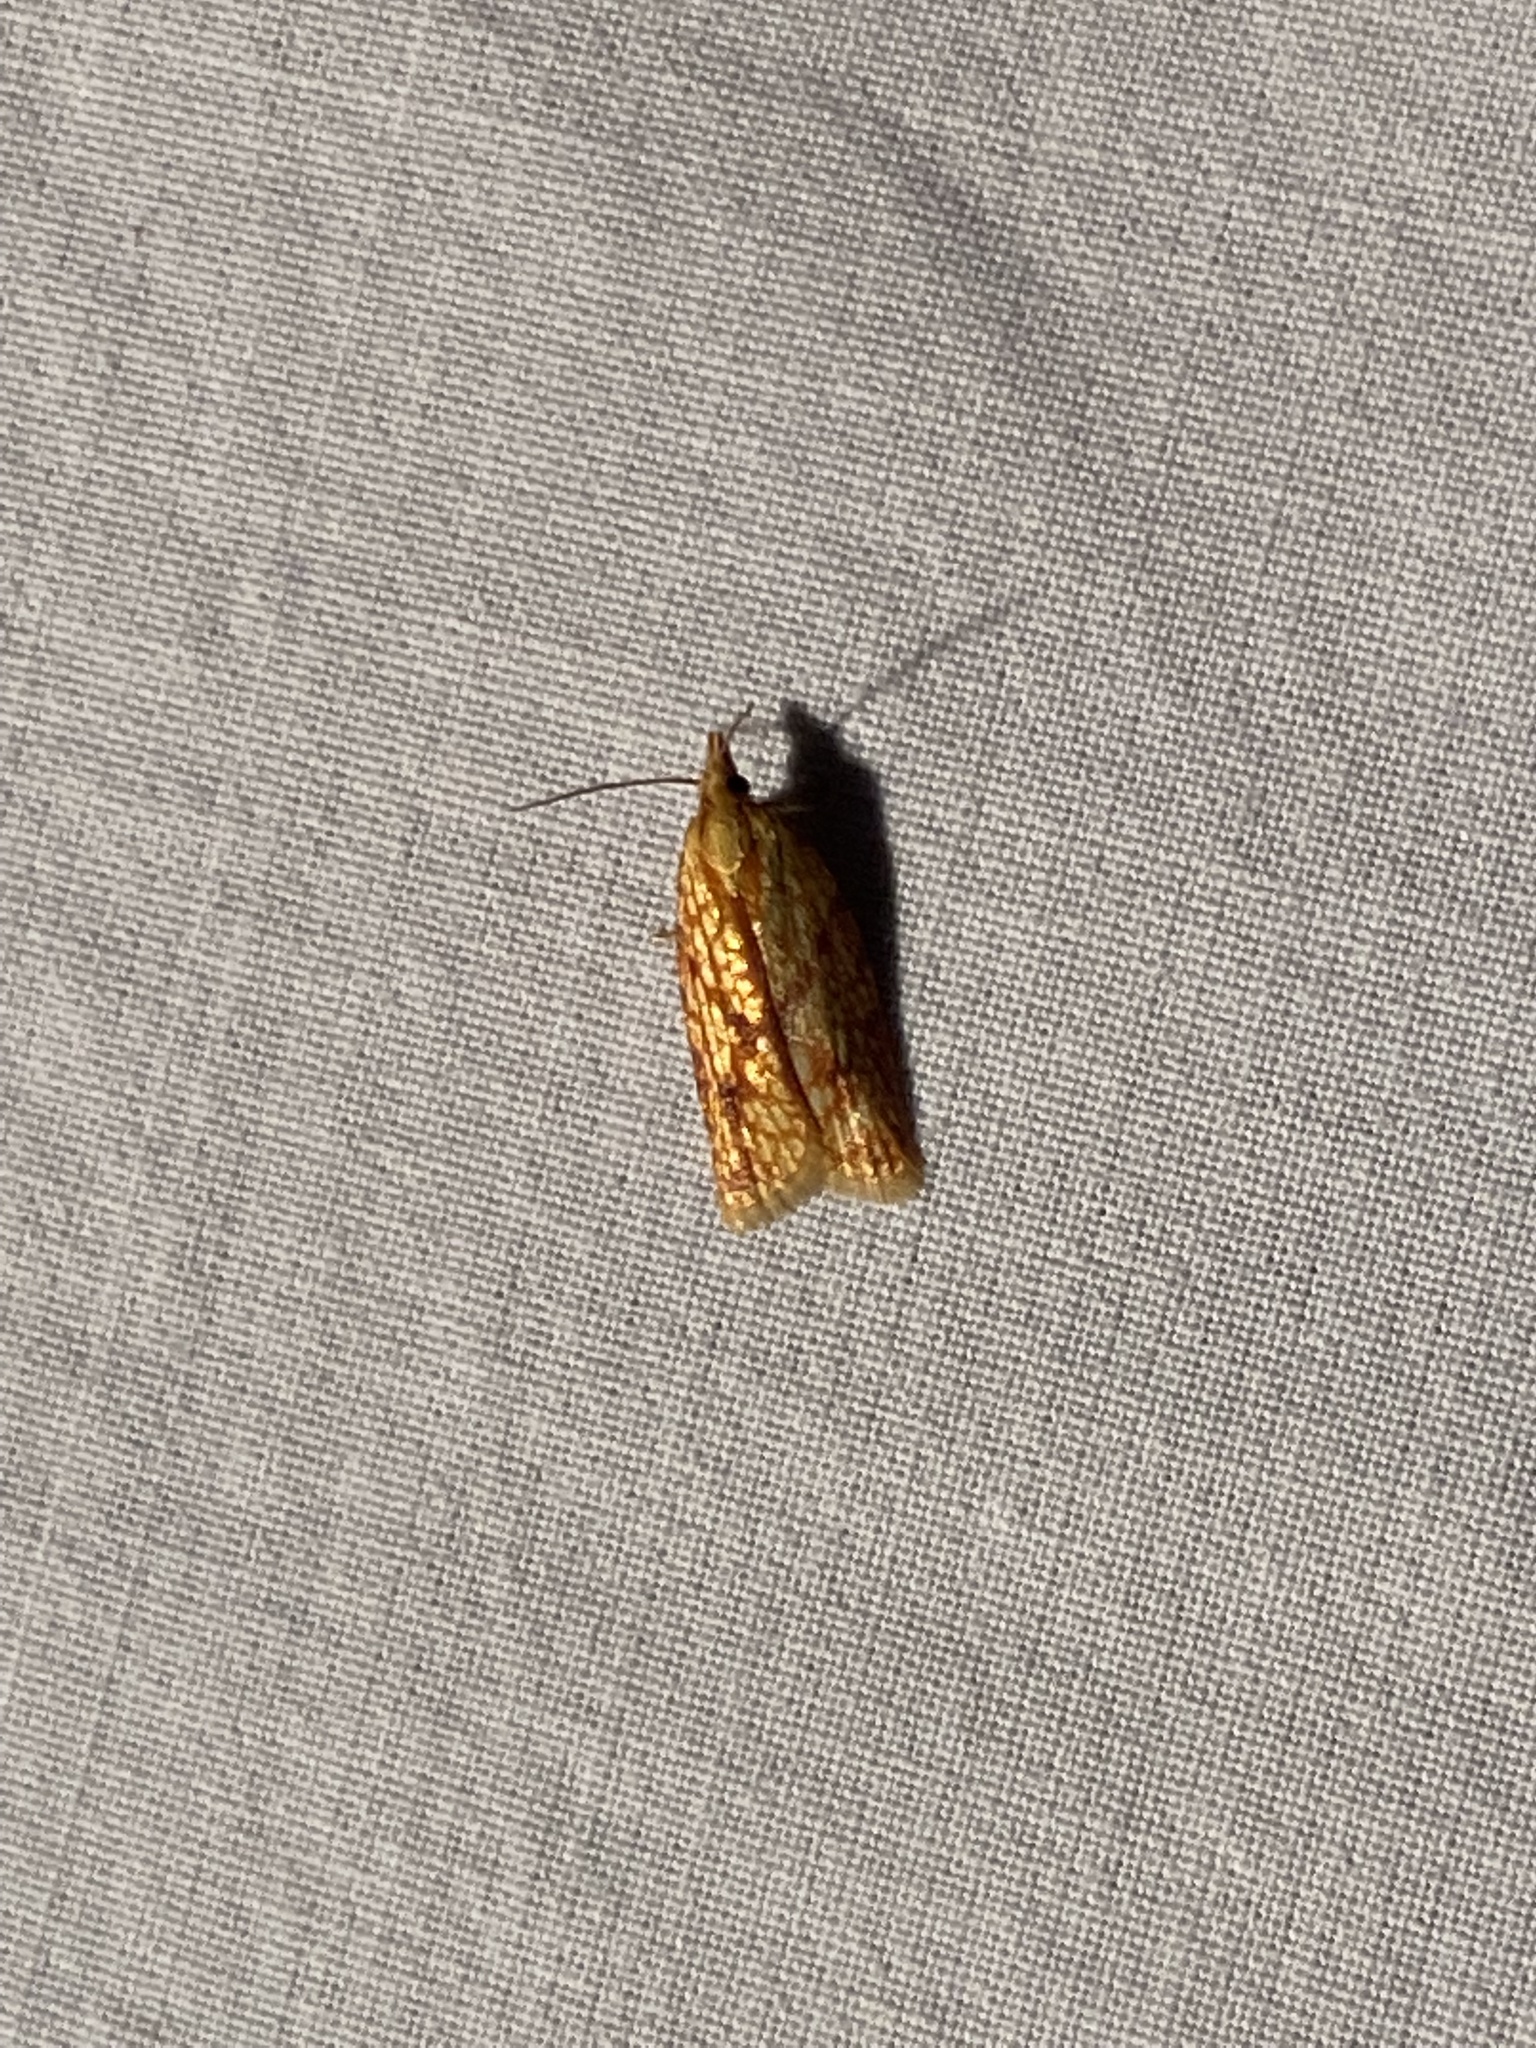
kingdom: Animalia
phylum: Arthropoda
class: Insecta
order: Lepidoptera
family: Tortricidae
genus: Sparganothis
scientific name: Sparganothis sulfureana
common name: Sparganothis fruitworm moth
